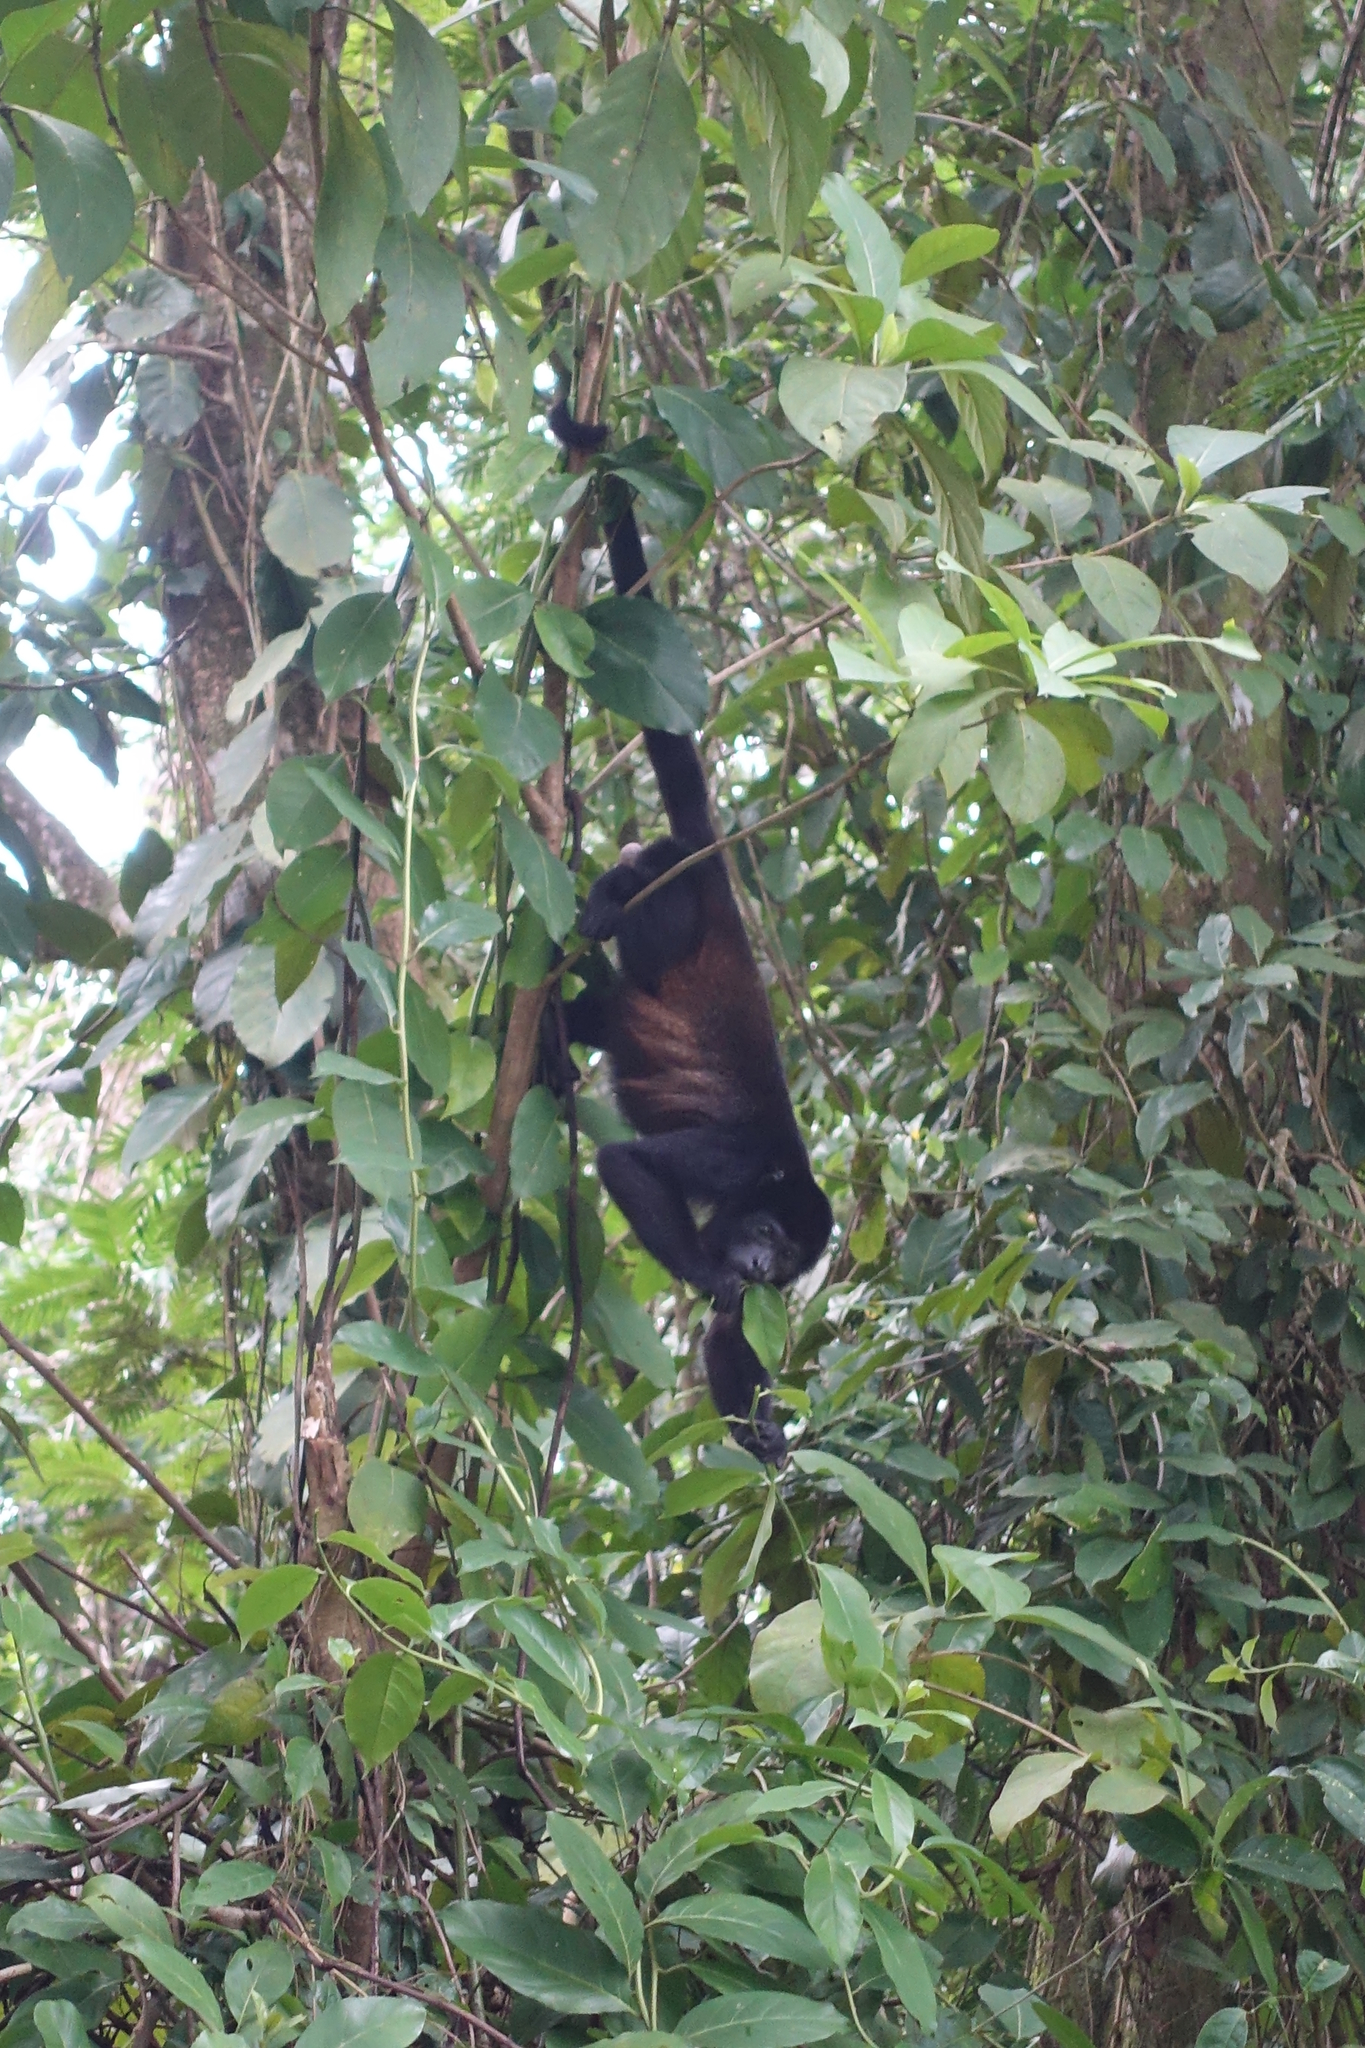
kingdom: Animalia
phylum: Chordata
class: Mammalia
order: Primates
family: Atelidae
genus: Alouatta
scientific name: Alouatta palliata
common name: Mantled howler
